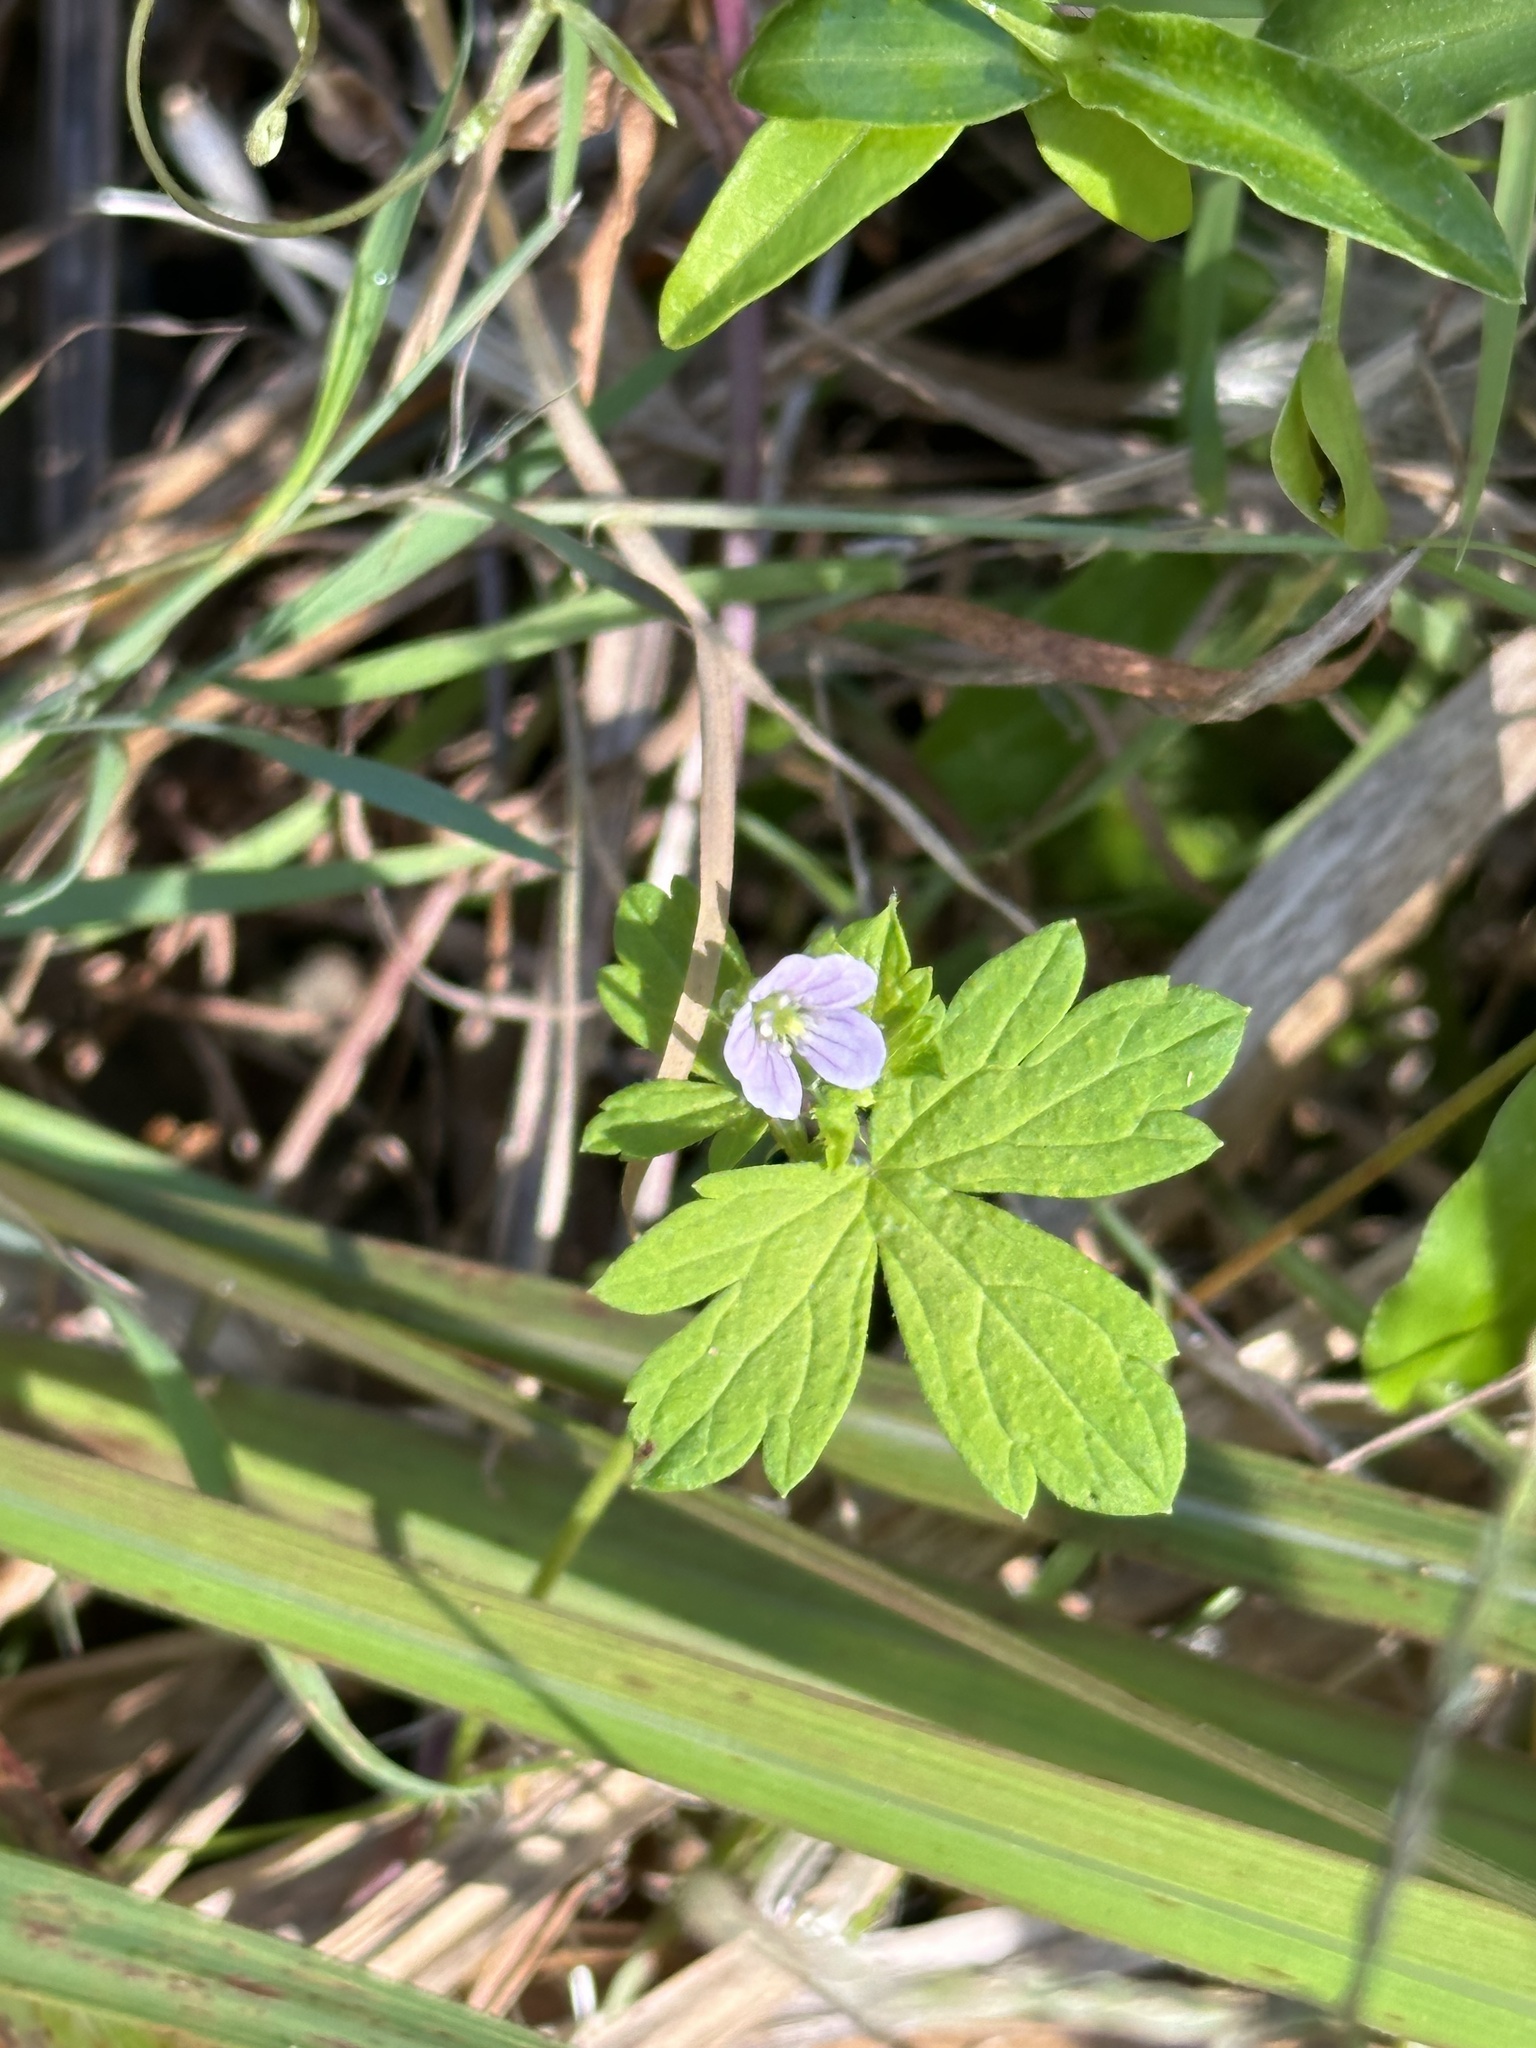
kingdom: Plantae
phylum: Tracheophyta
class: Magnoliopsida
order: Geraniales
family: Geraniaceae
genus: Geranium
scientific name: Geranium homeanum
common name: Australasian geranium
